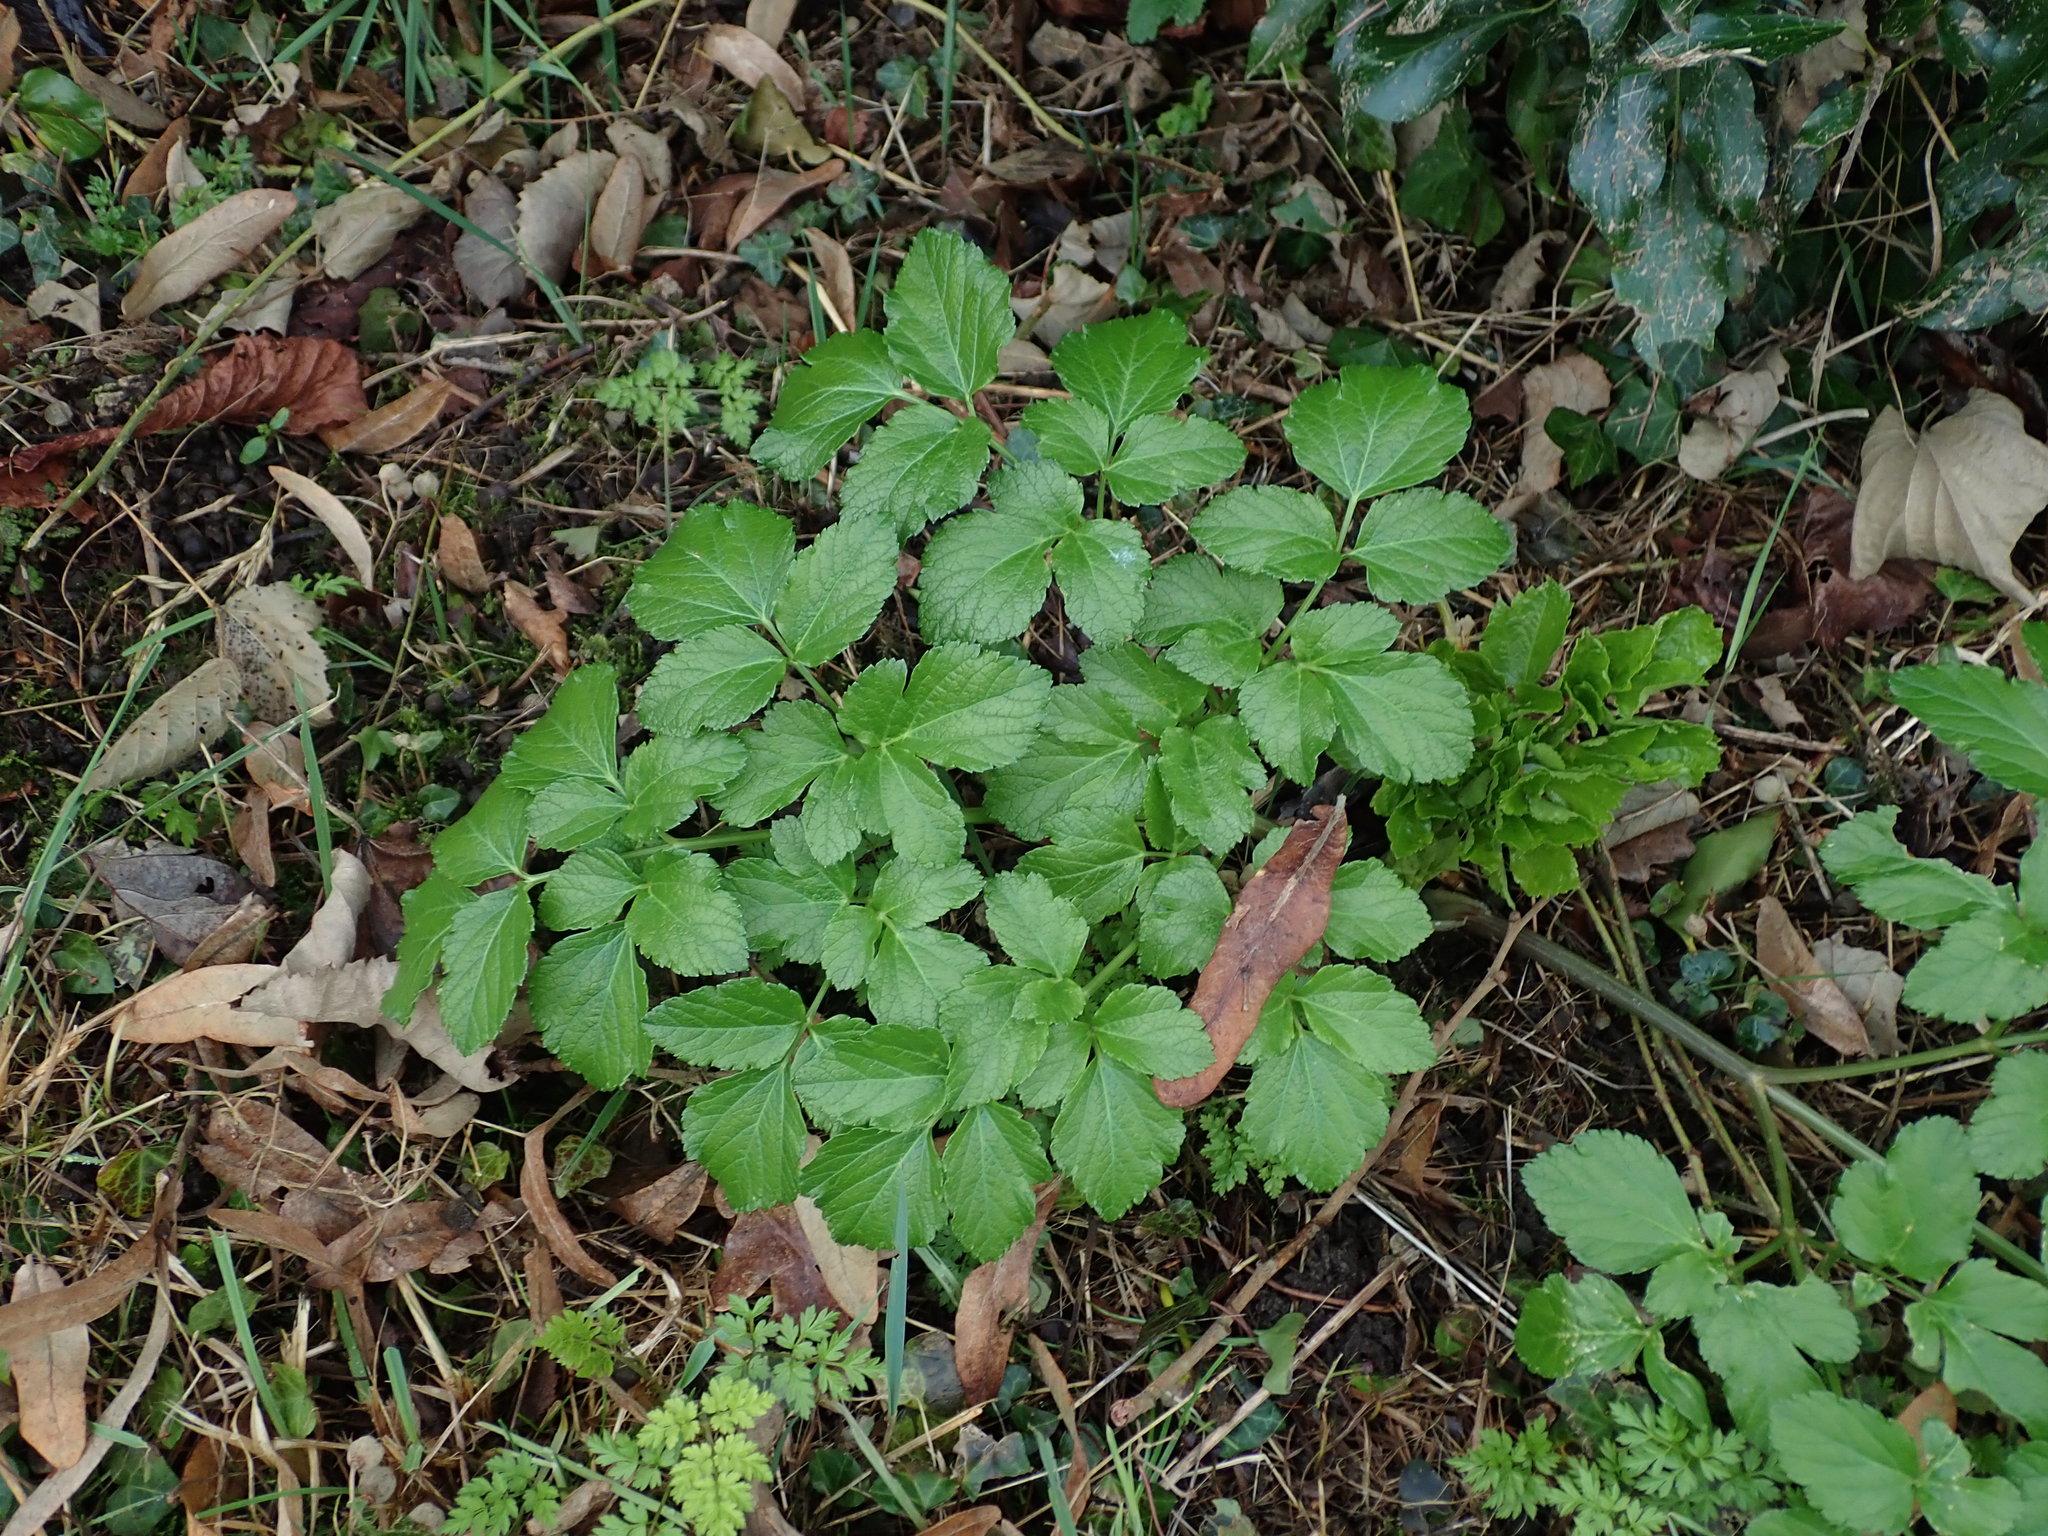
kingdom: Plantae
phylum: Tracheophyta
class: Magnoliopsida
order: Apiales
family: Apiaceae
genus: Smyrnium
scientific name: Smyrnium olusatrum
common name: Alexanders
